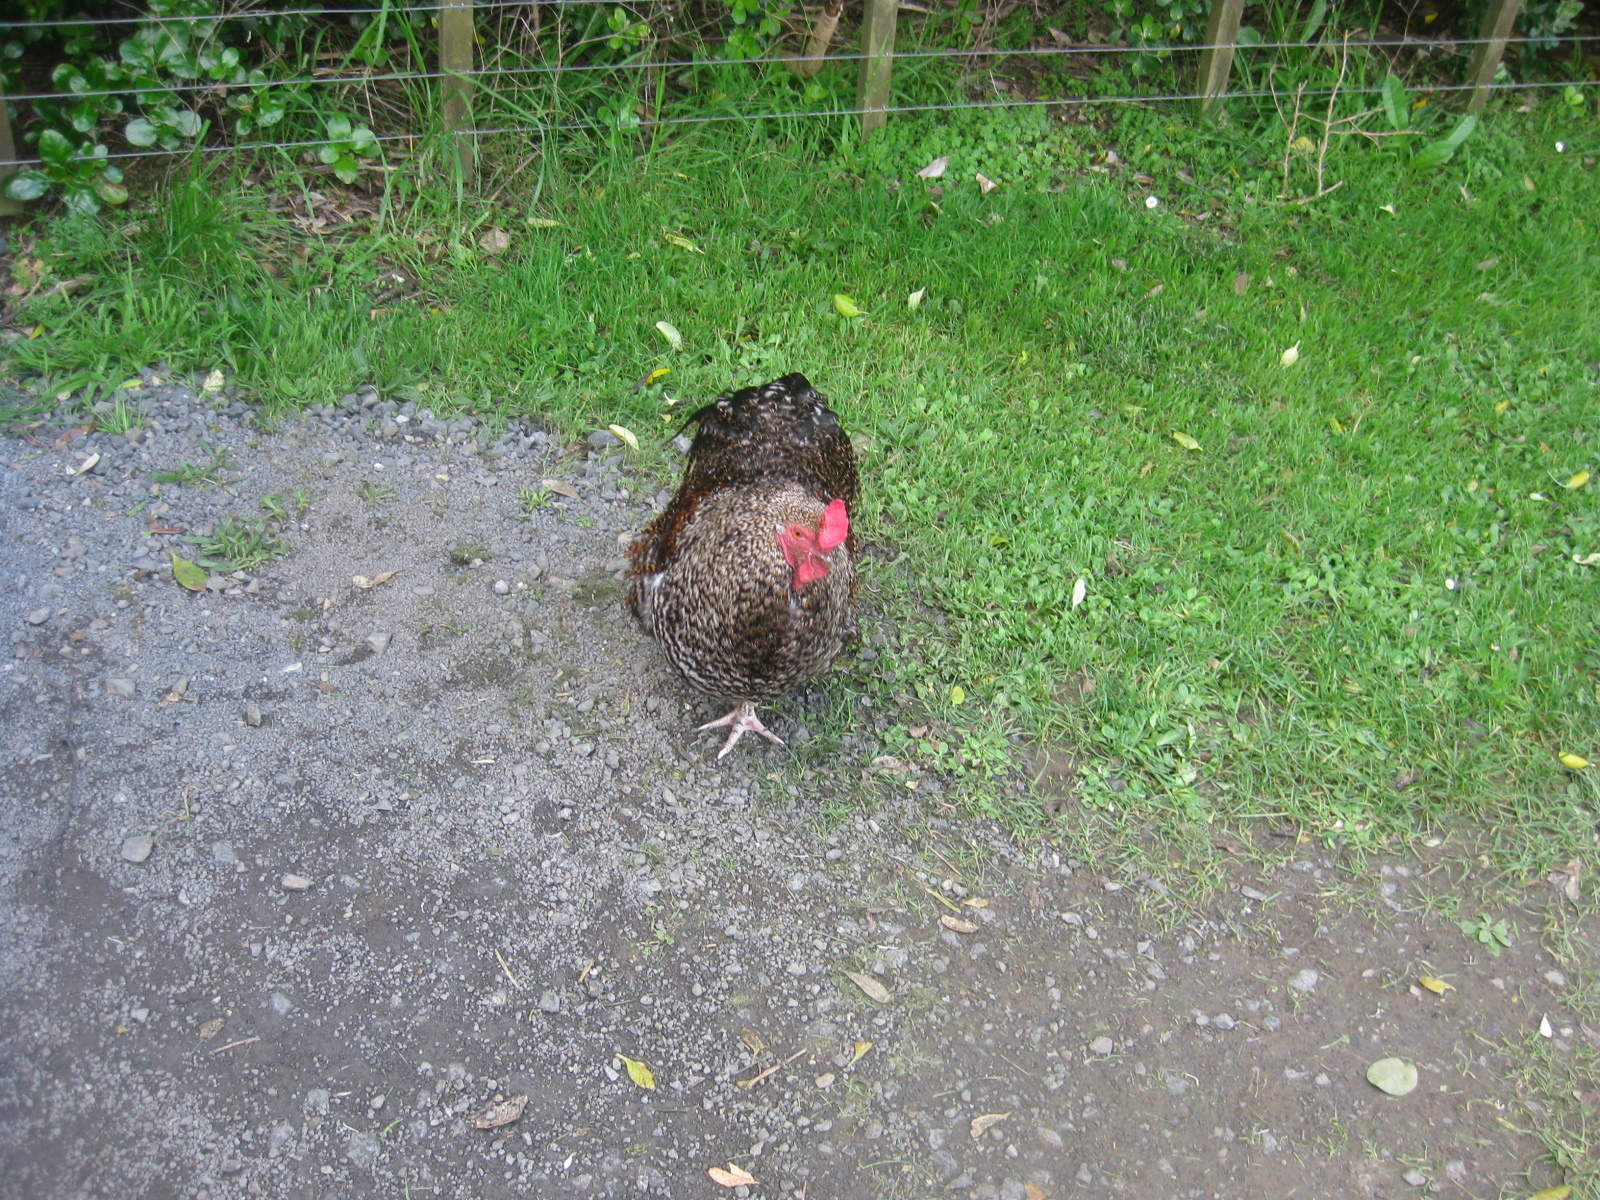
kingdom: Animalia
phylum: Chordata
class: Aves
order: Galliformes
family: Phasianidae
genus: Gallus
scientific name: Gallus gallus
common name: Red junglefowl
